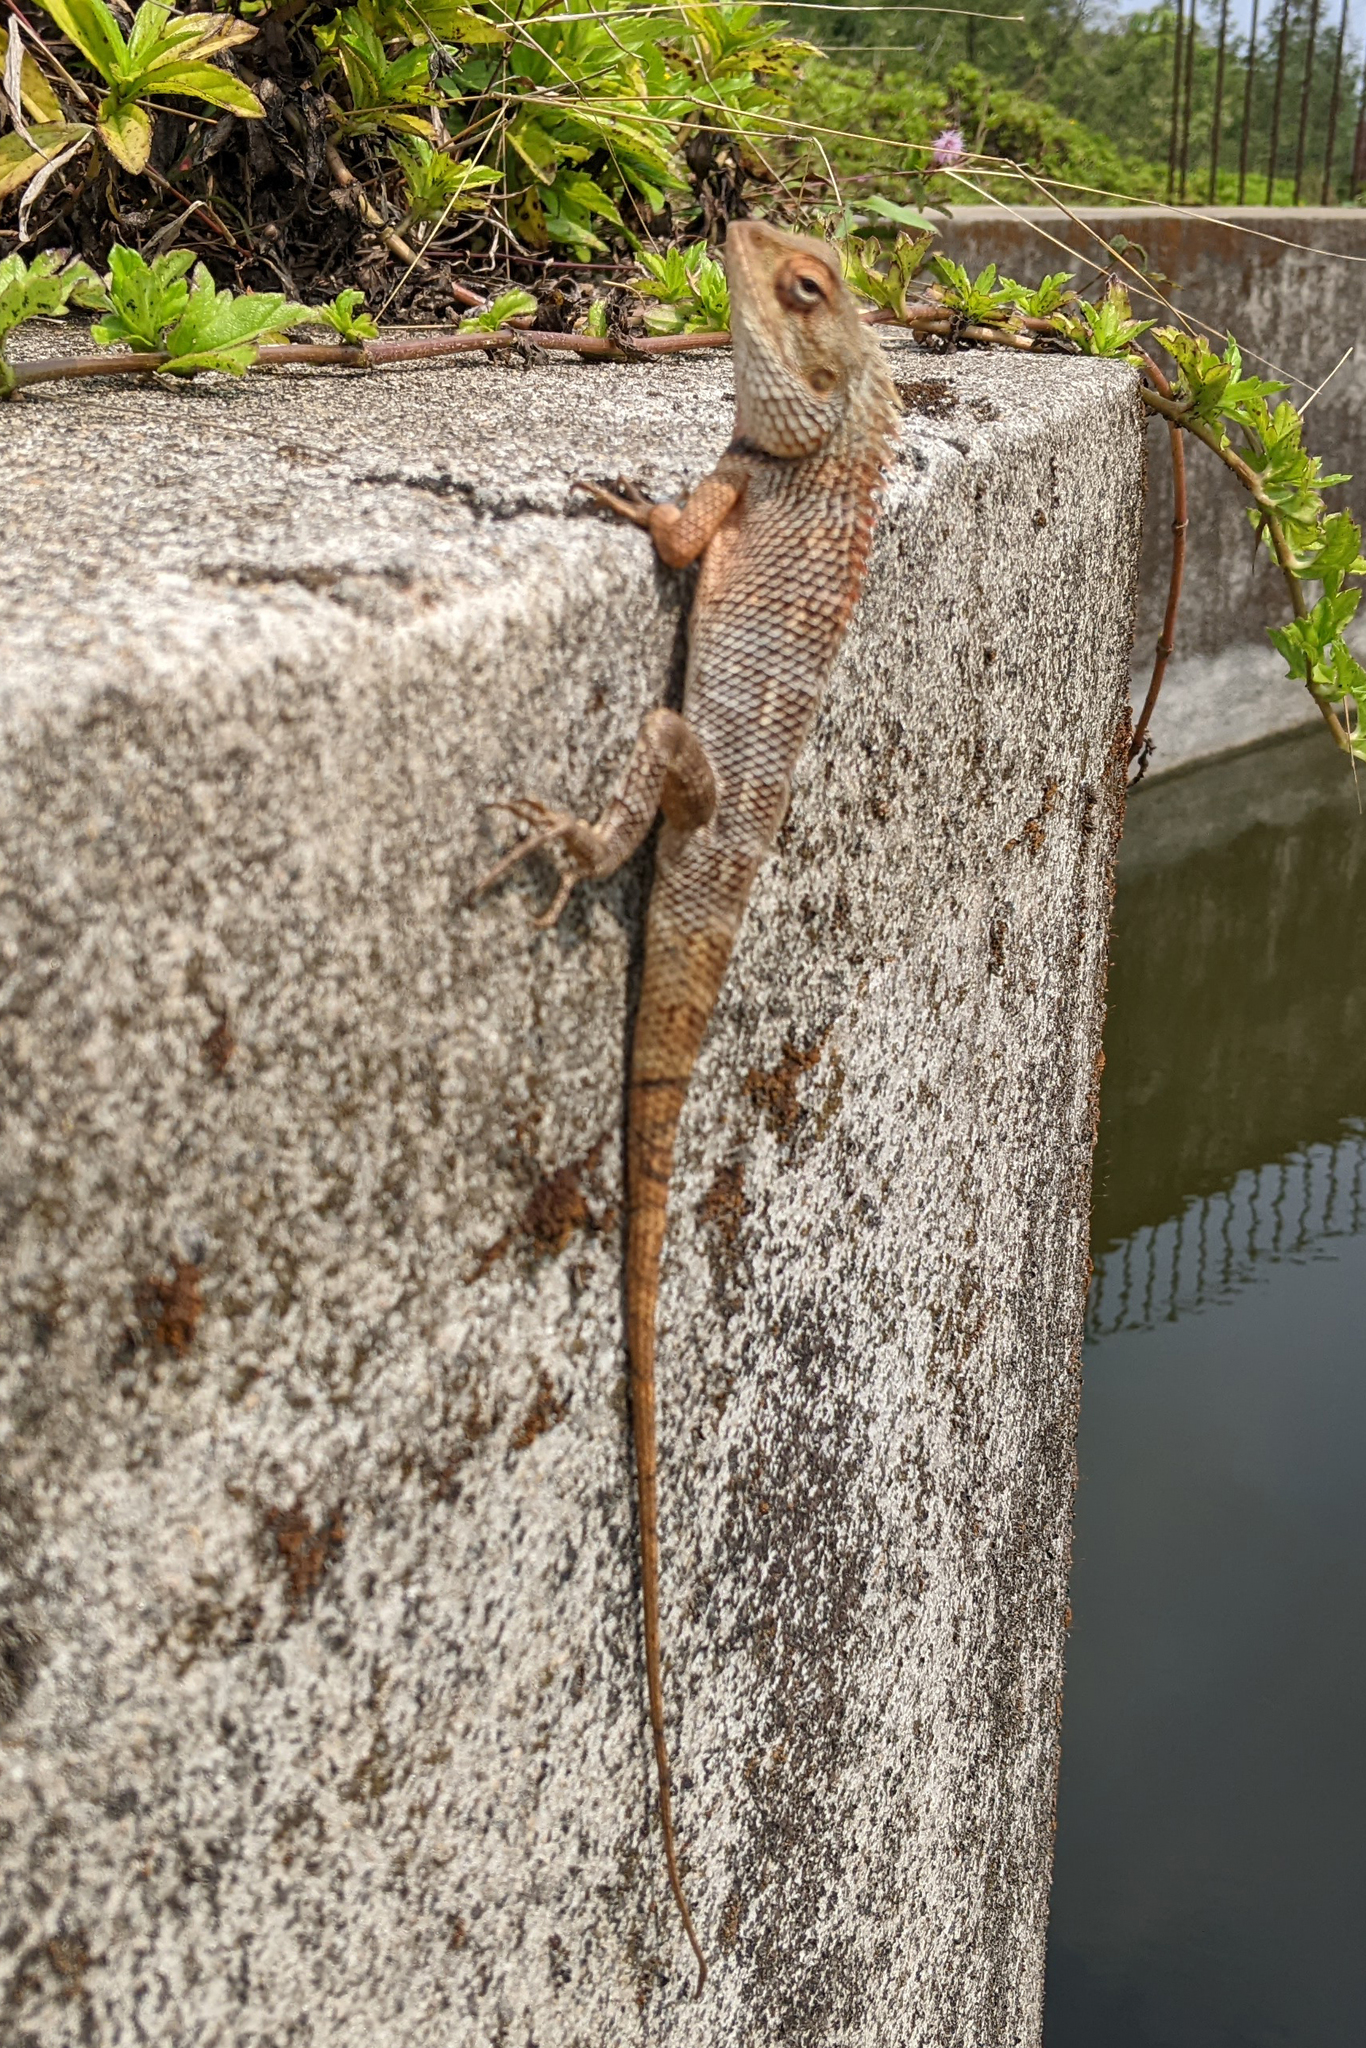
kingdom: Animalia
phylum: Chordata
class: Squamata
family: Agamidae
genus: Calotes
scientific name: Calotes versicolor
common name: Oriental garden lizard
